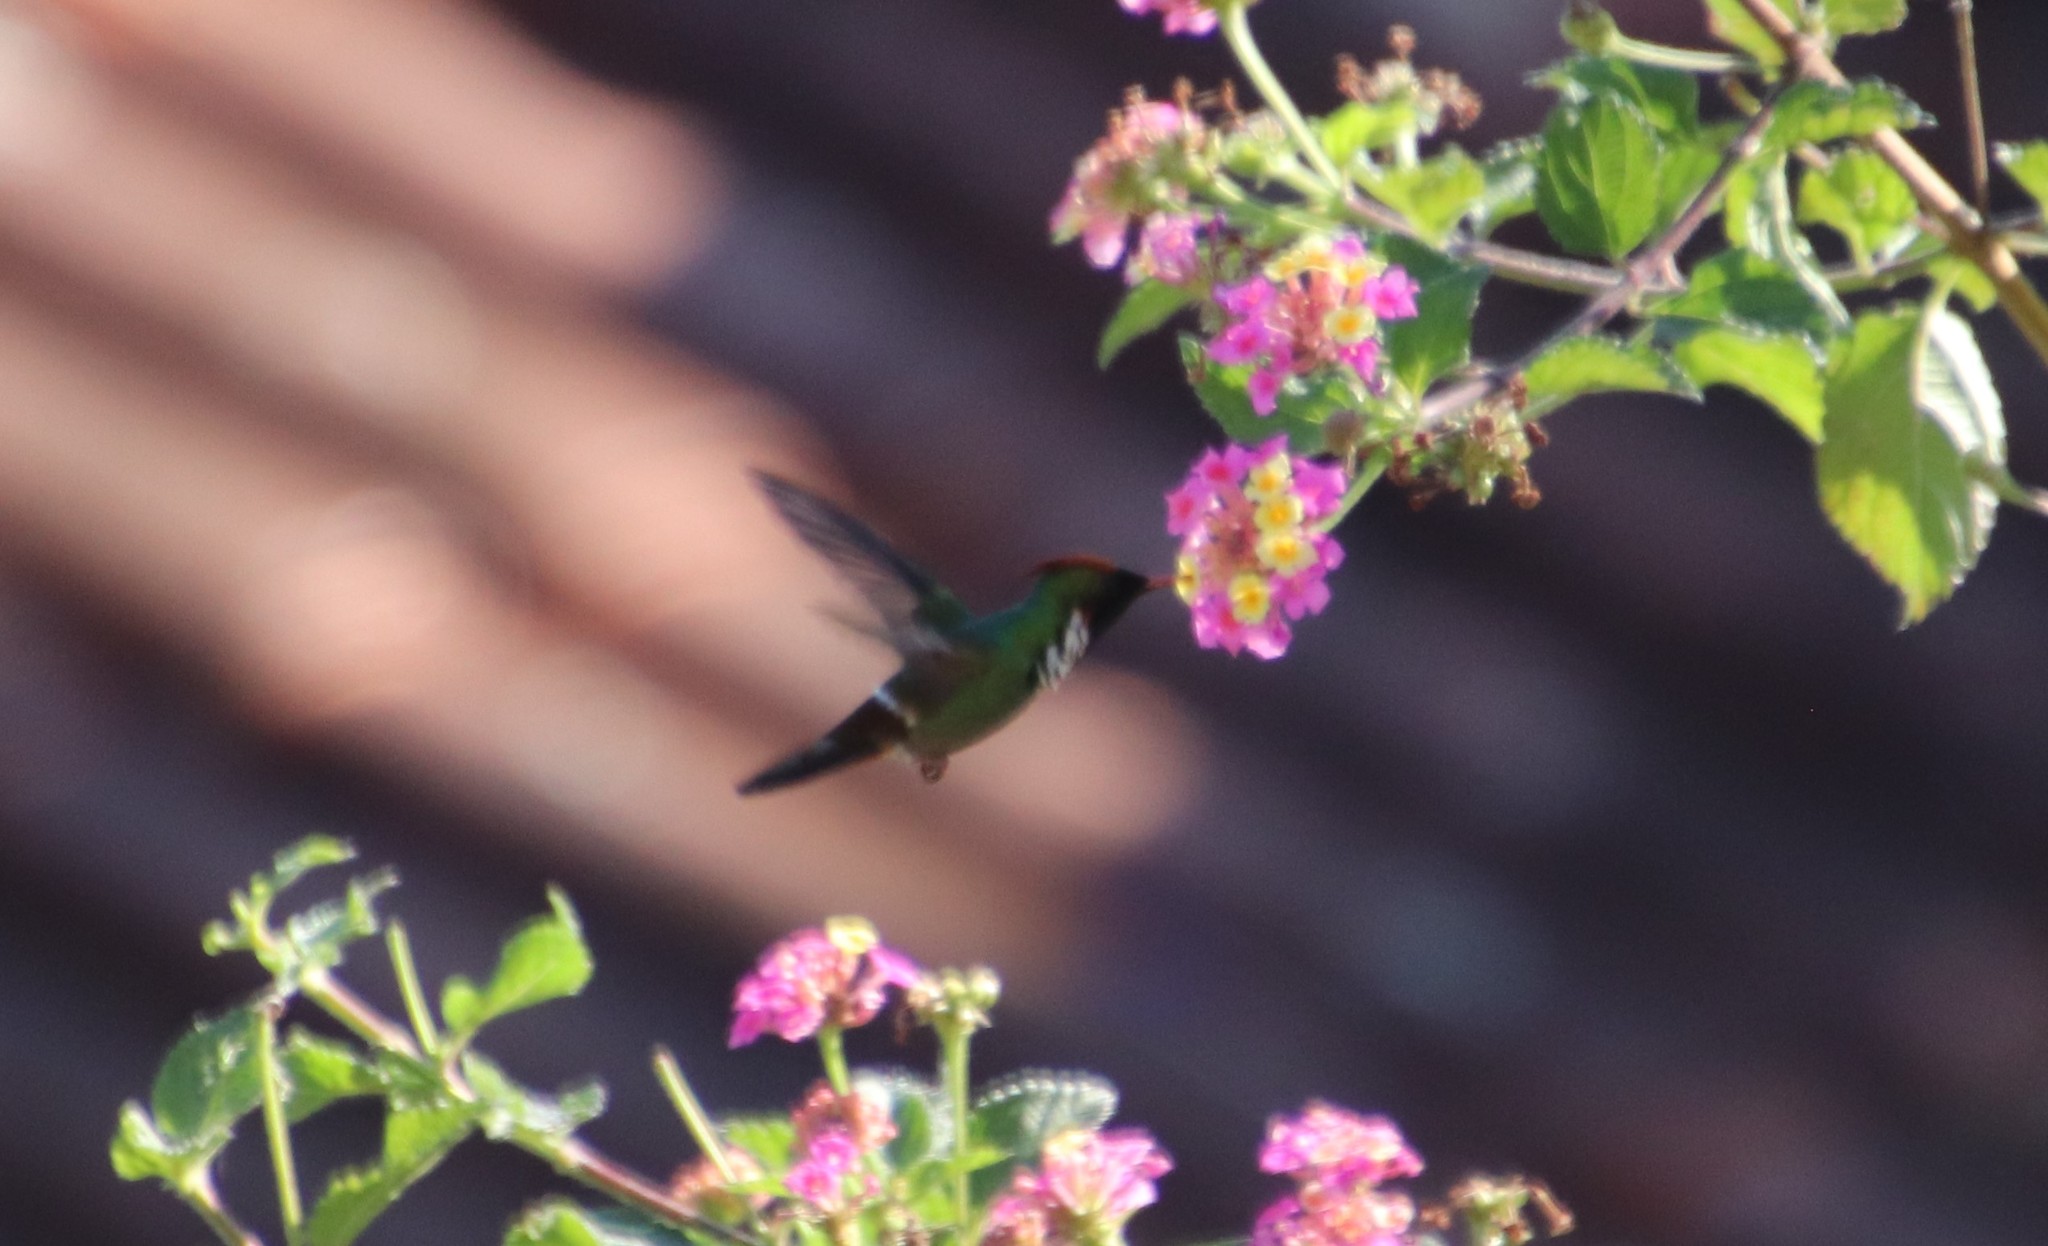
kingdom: Animalia
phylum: Chordata
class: Aves
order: Apodiformes
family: Trochilidae
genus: Lophornis
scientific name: Lophornis magnificus
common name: Frilled coquette
